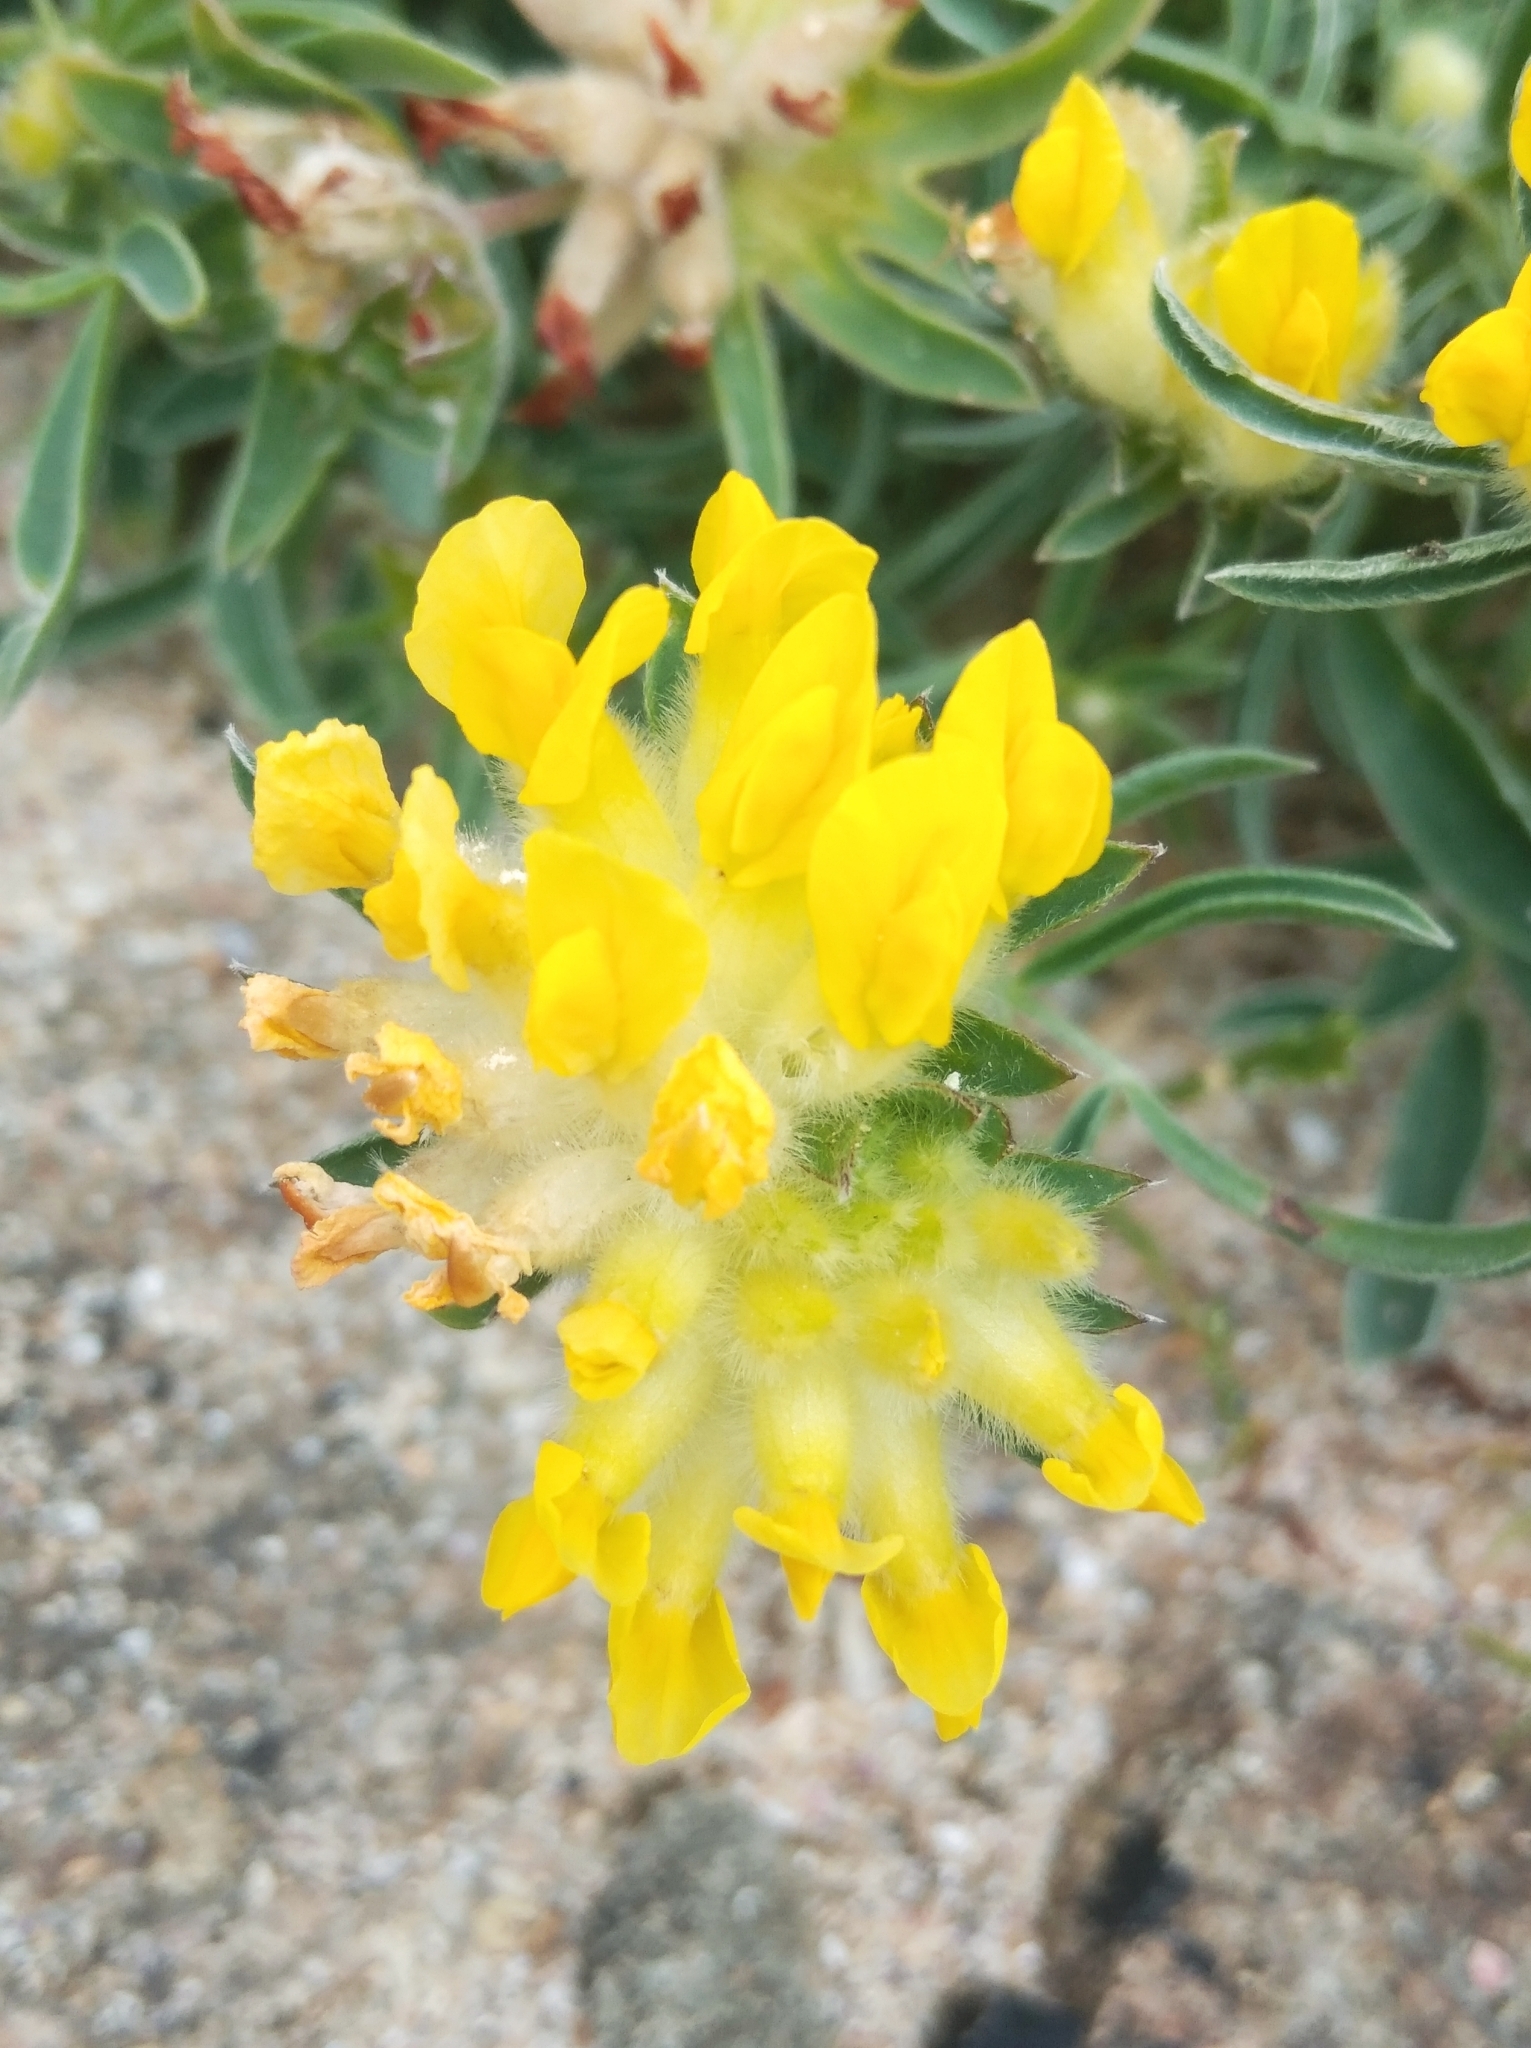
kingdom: Plantae
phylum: Tracheophyta
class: Magnoliopsida
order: Fabales
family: Fabaceae
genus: Anthyllis
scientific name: Anthyllis vulneraria
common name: Kidney vetch
